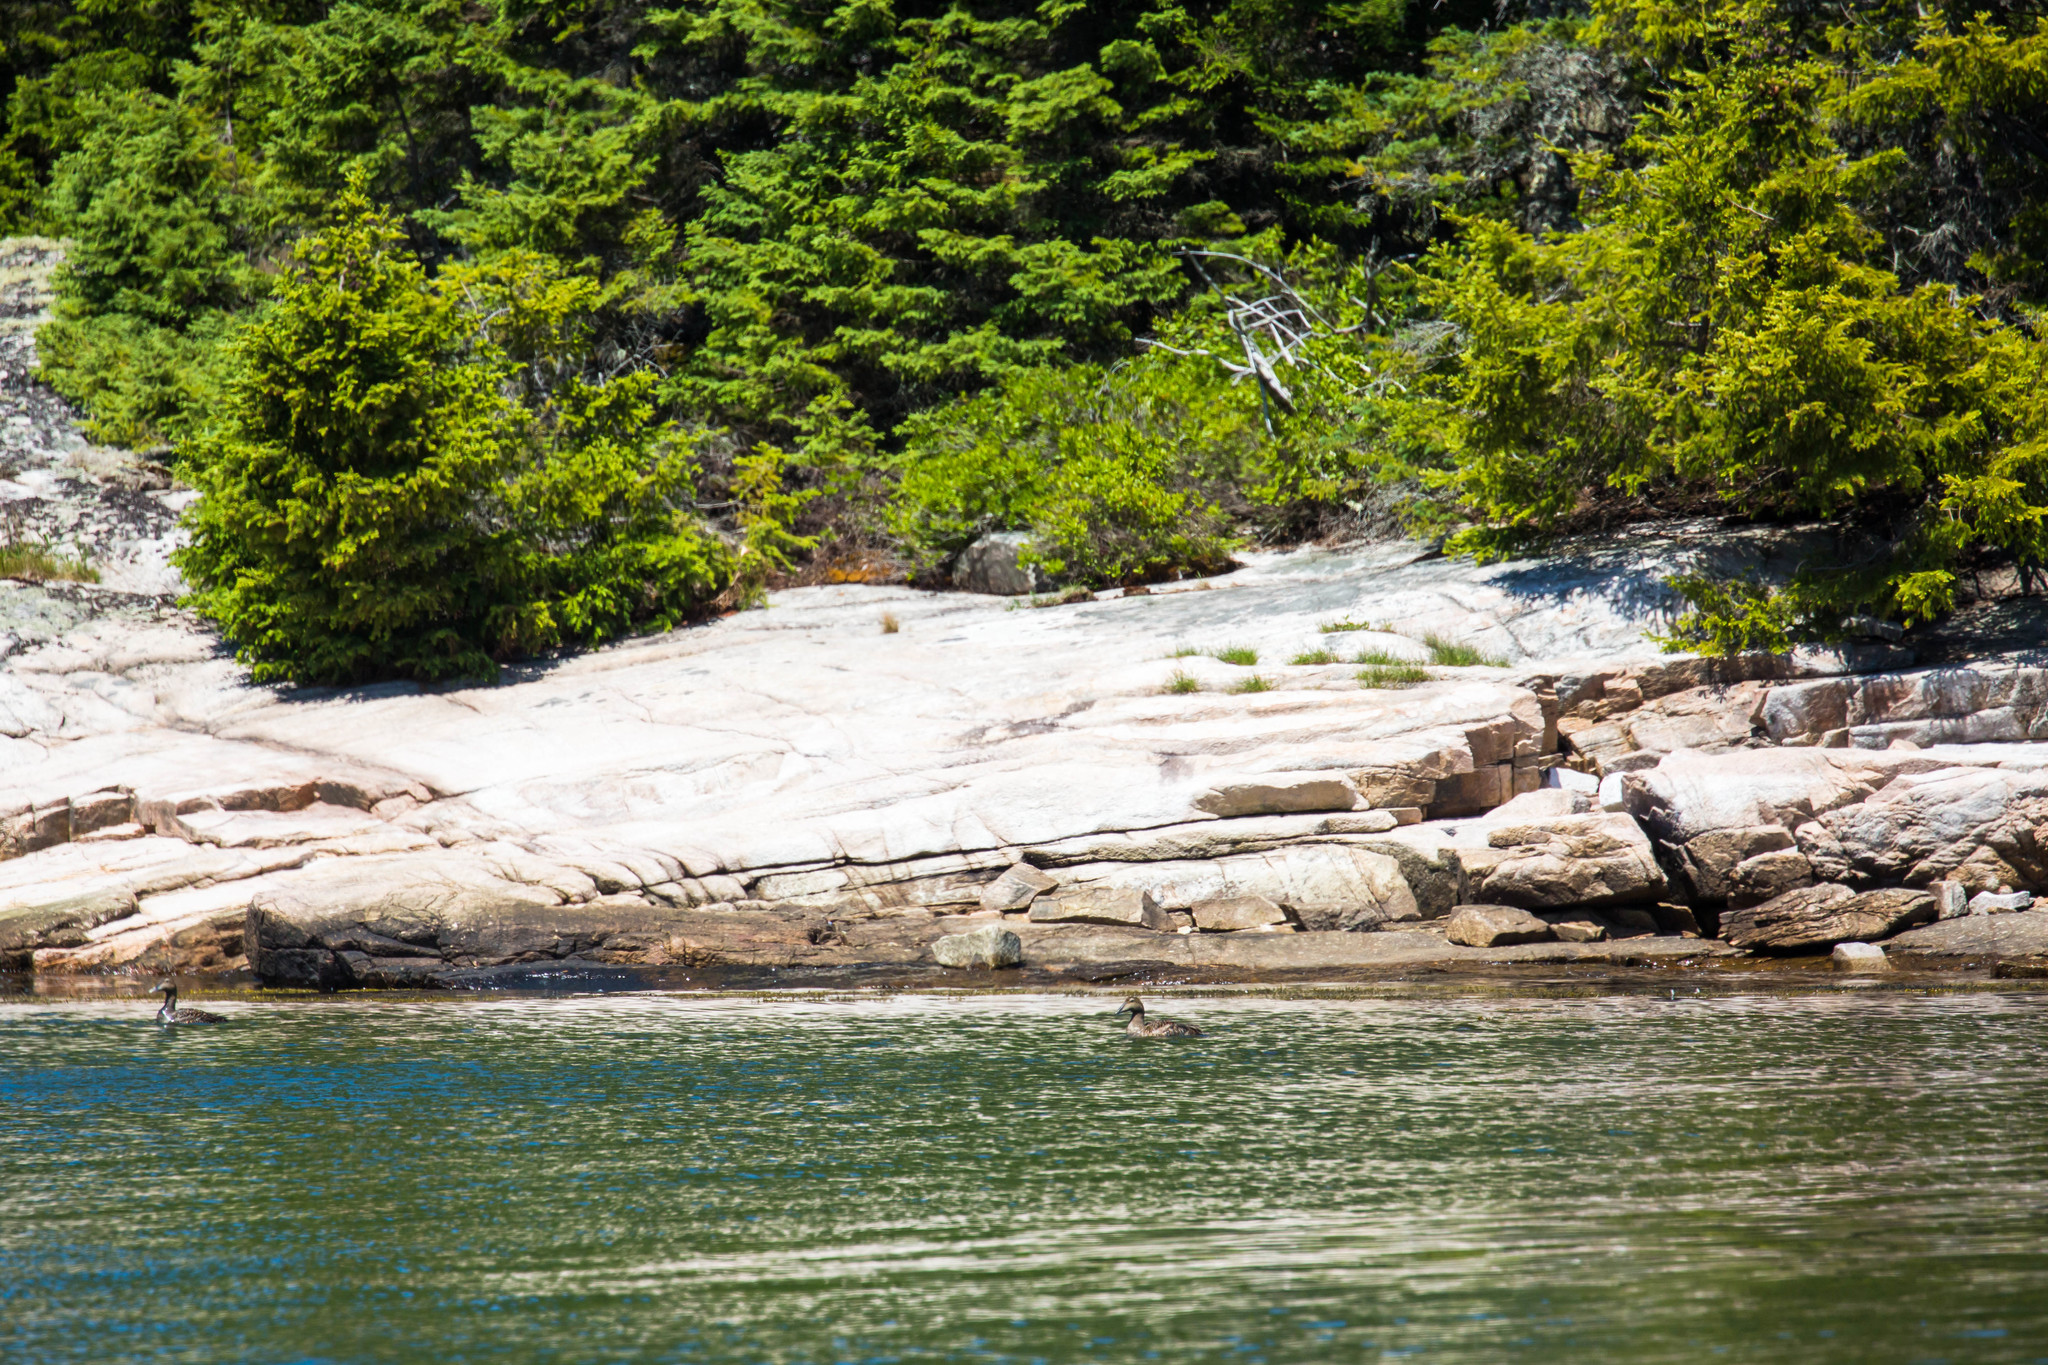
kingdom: Animalia
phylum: Chordata
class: Aves
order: Anseriformes
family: Anatidae
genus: Somateria
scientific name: Somateria mollissima
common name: Common eider
